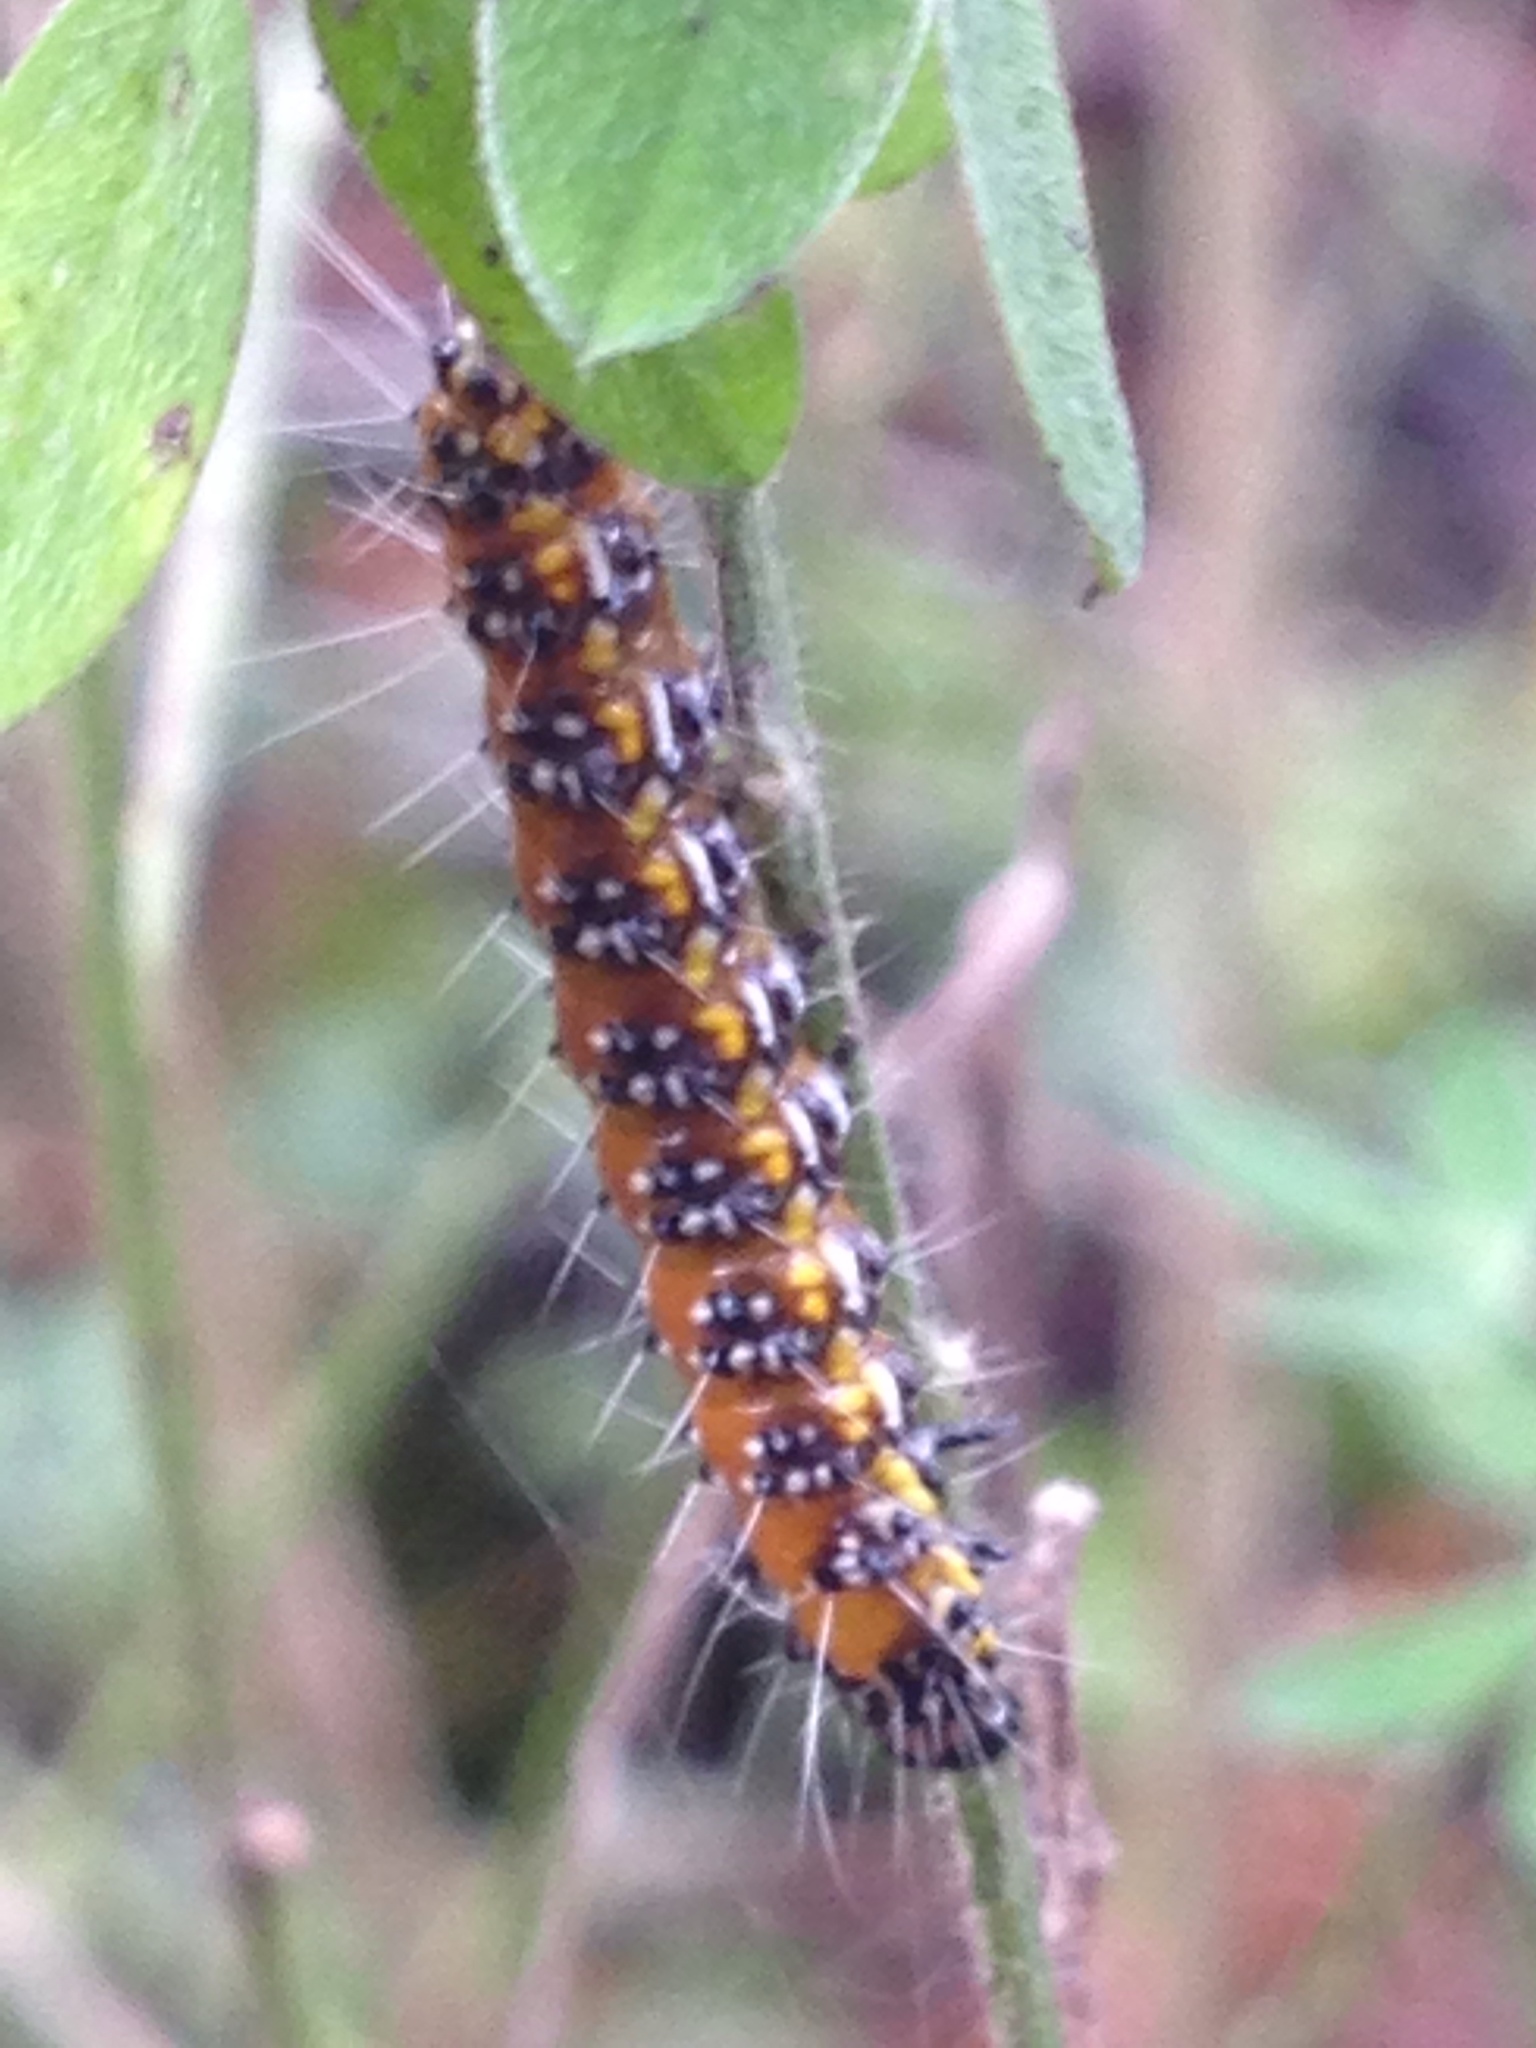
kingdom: Animalia
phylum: Arthropoda
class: Insecta
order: Lepidoptera
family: Crambidae
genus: Uresiphita
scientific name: Uresiphita reversalis
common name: Genista broom moth
